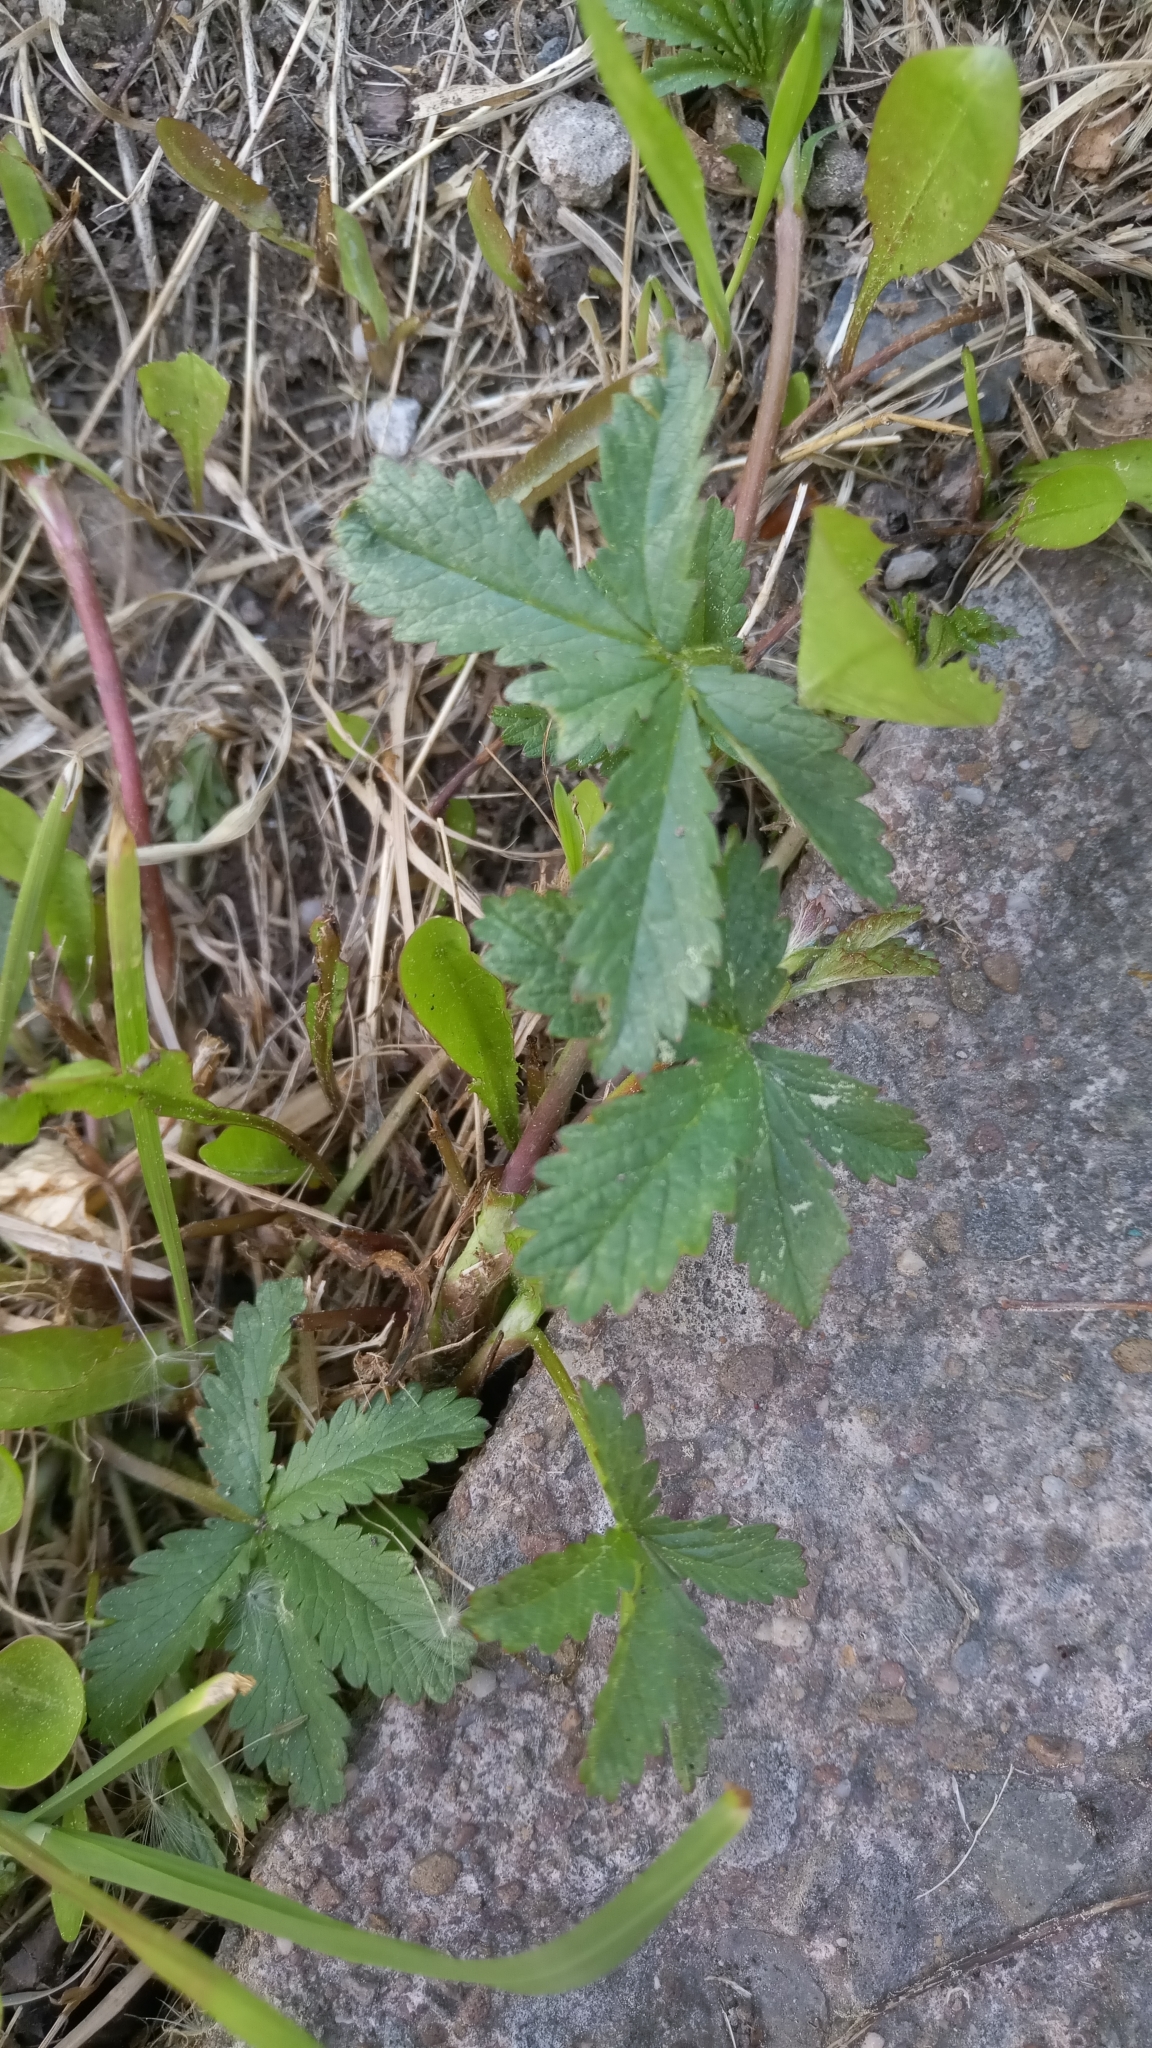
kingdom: Plantae
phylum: Tracheophyta
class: Magnoliopsida
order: Rosales
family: Rosaceae
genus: Potentilla
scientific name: Potentilla reptans
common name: Creeping cinquefoil
